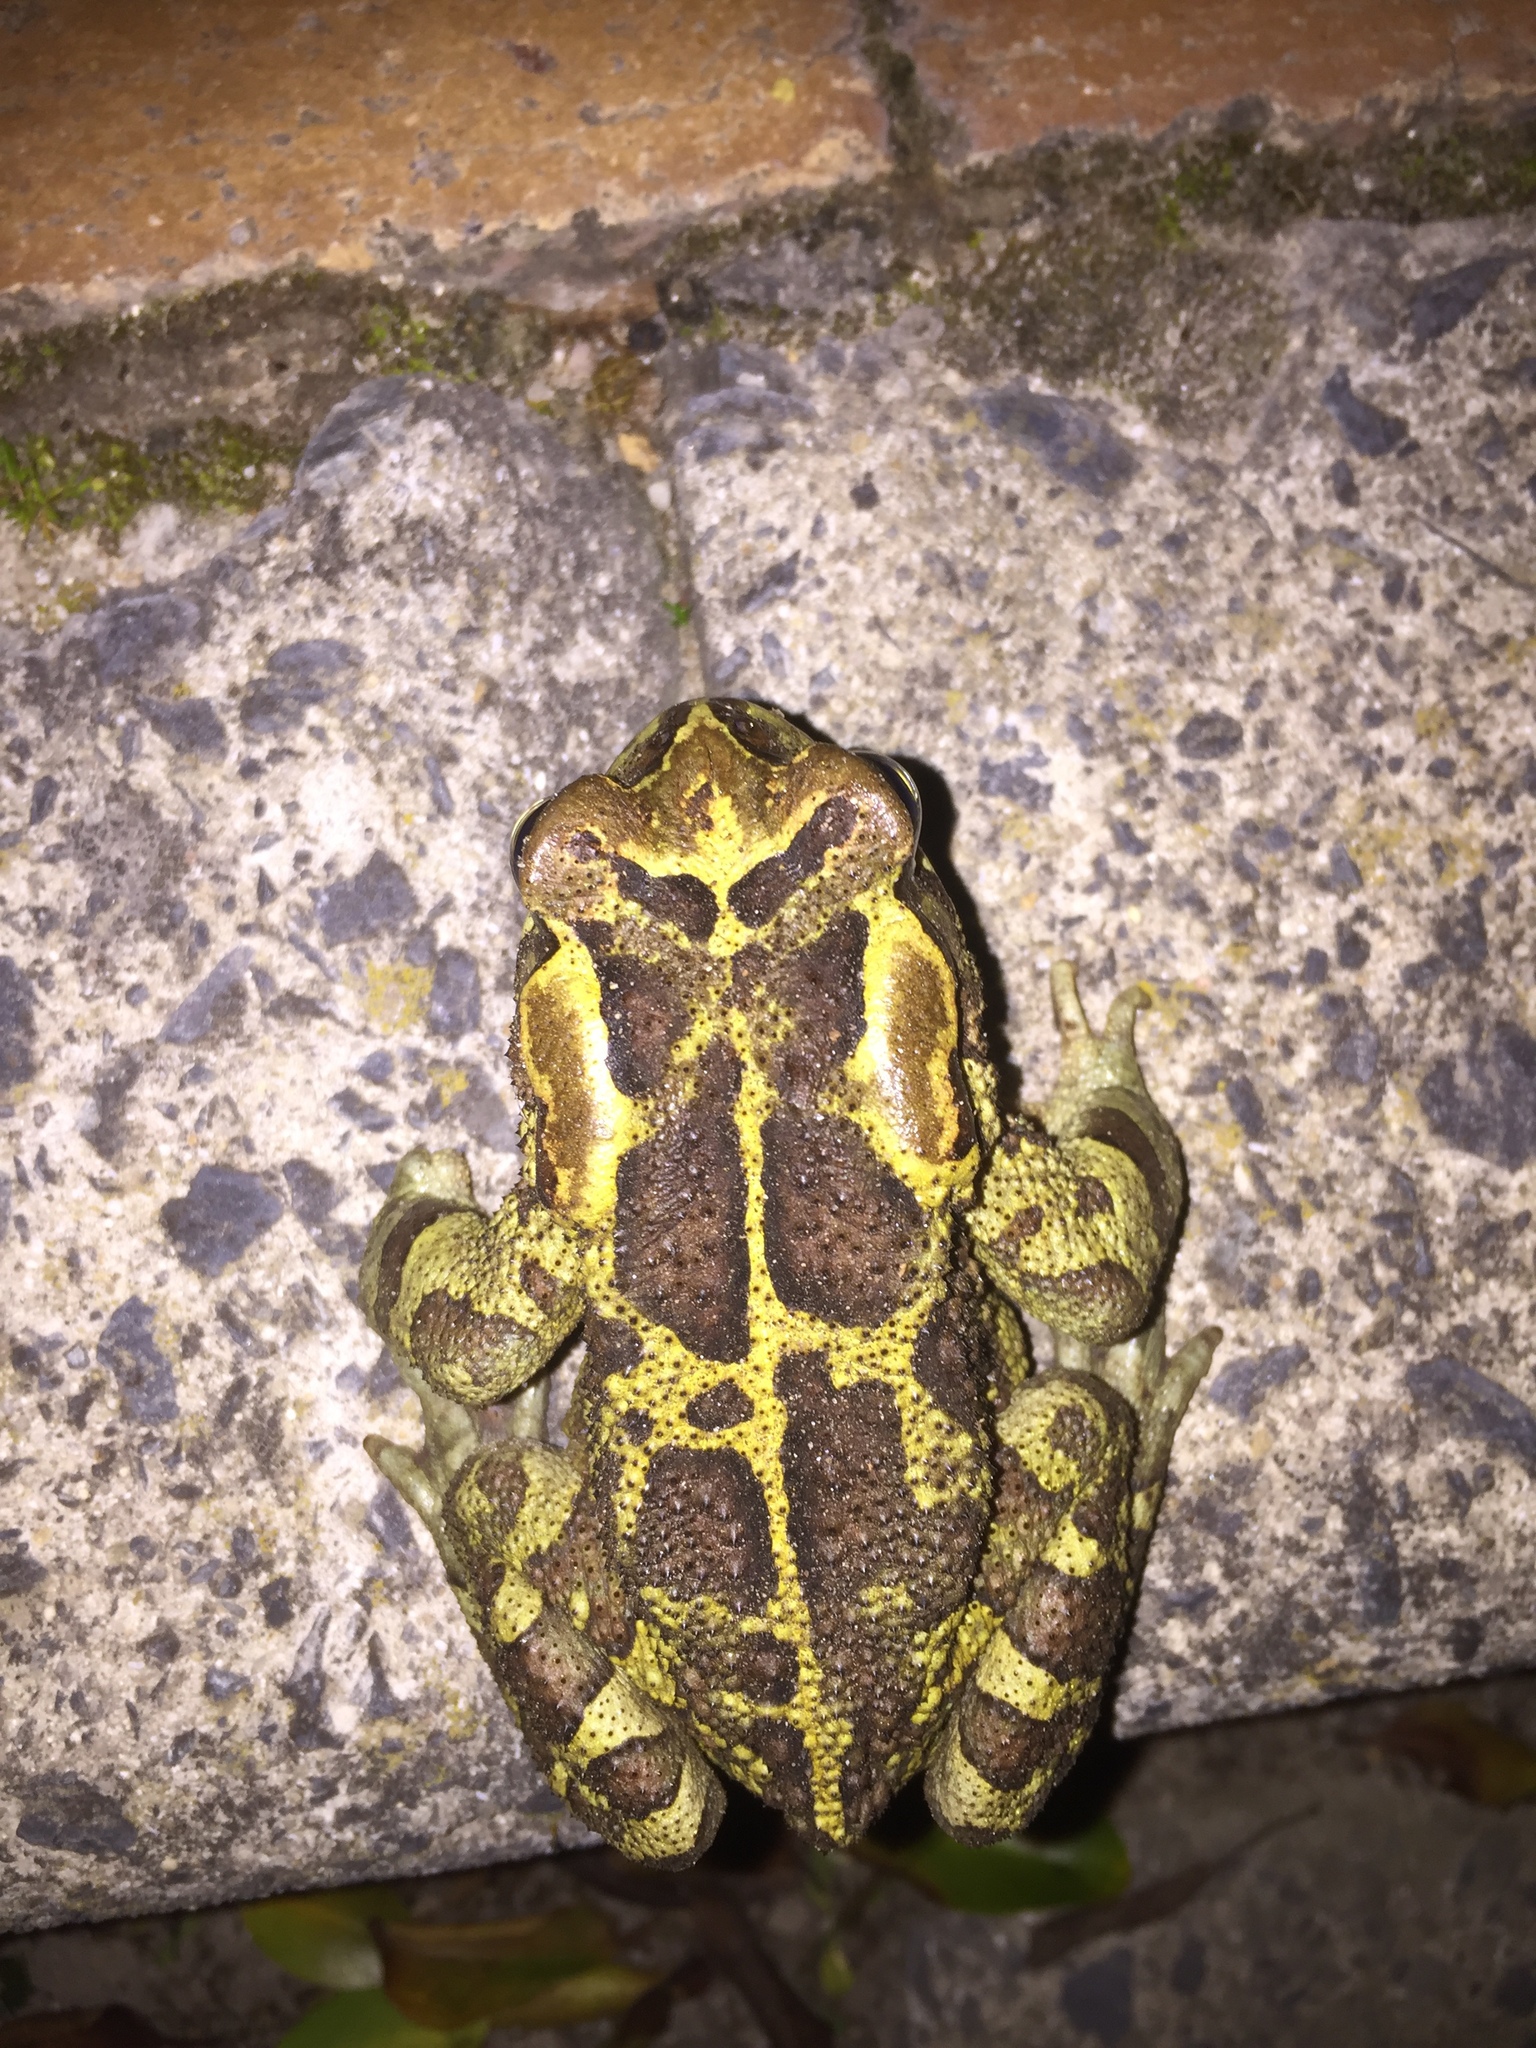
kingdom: Animalia
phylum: Chordata
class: Amphibia
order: Anura
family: Bufonidae
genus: Sclerophrys
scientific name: Sclerophrys pantherina
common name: Panther toad
